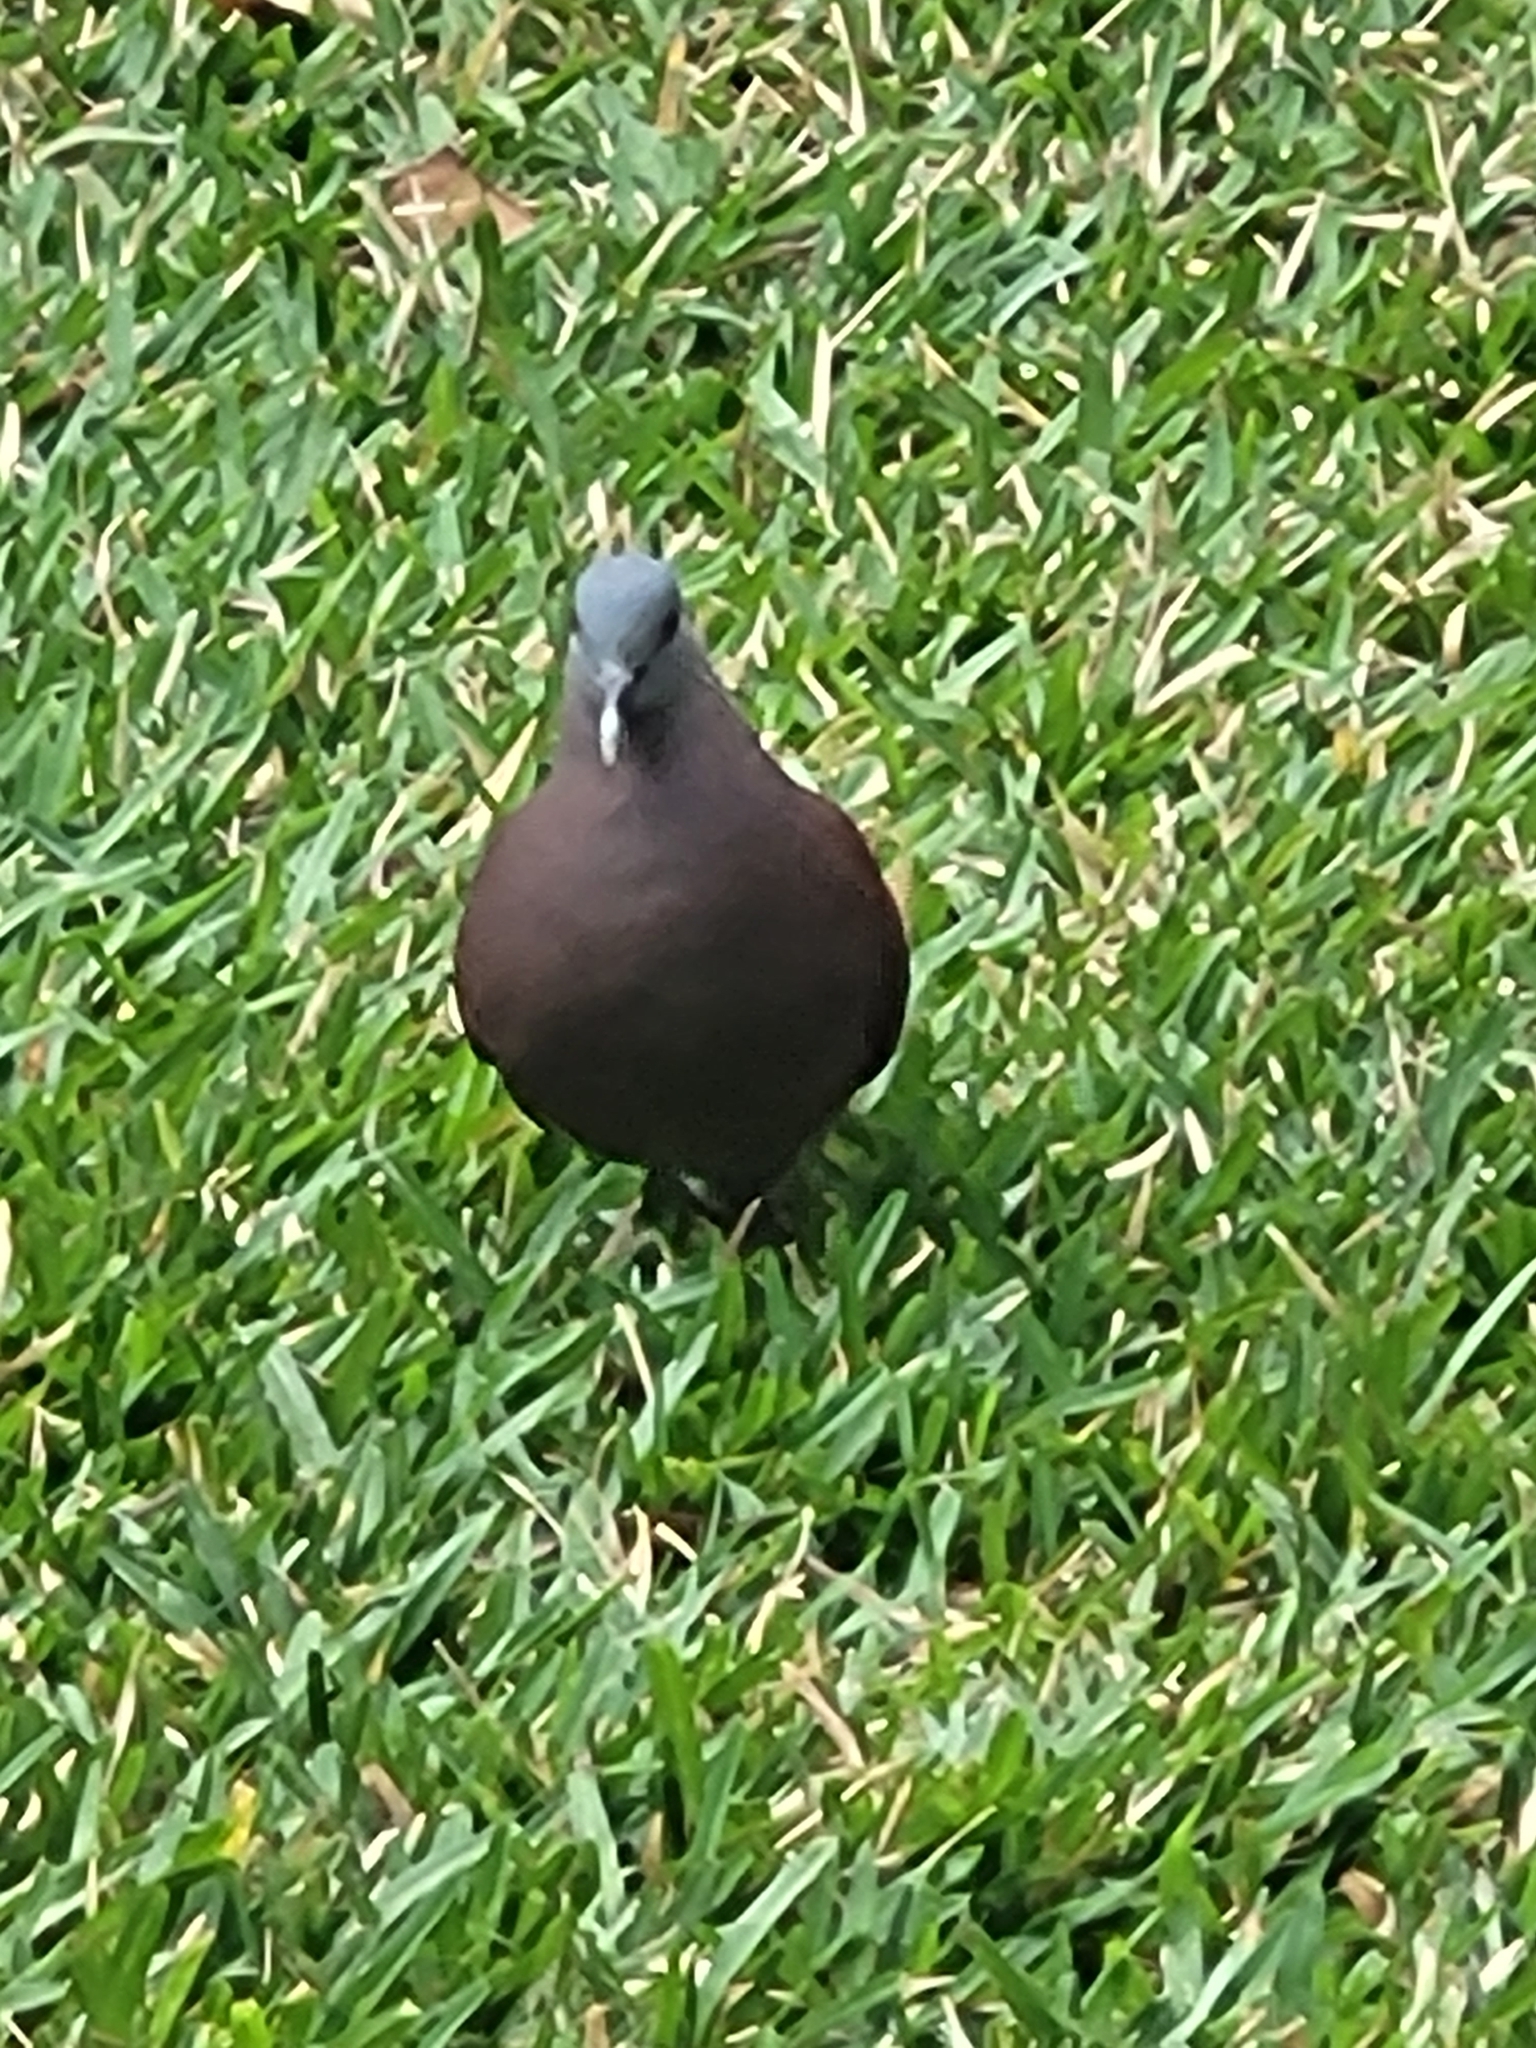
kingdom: Animalia
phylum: Chordata
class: Aves
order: Columbiformes
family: Columbidae
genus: Nesoenas
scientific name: Nesoenas picturatus
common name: Malagasy turtle dove
